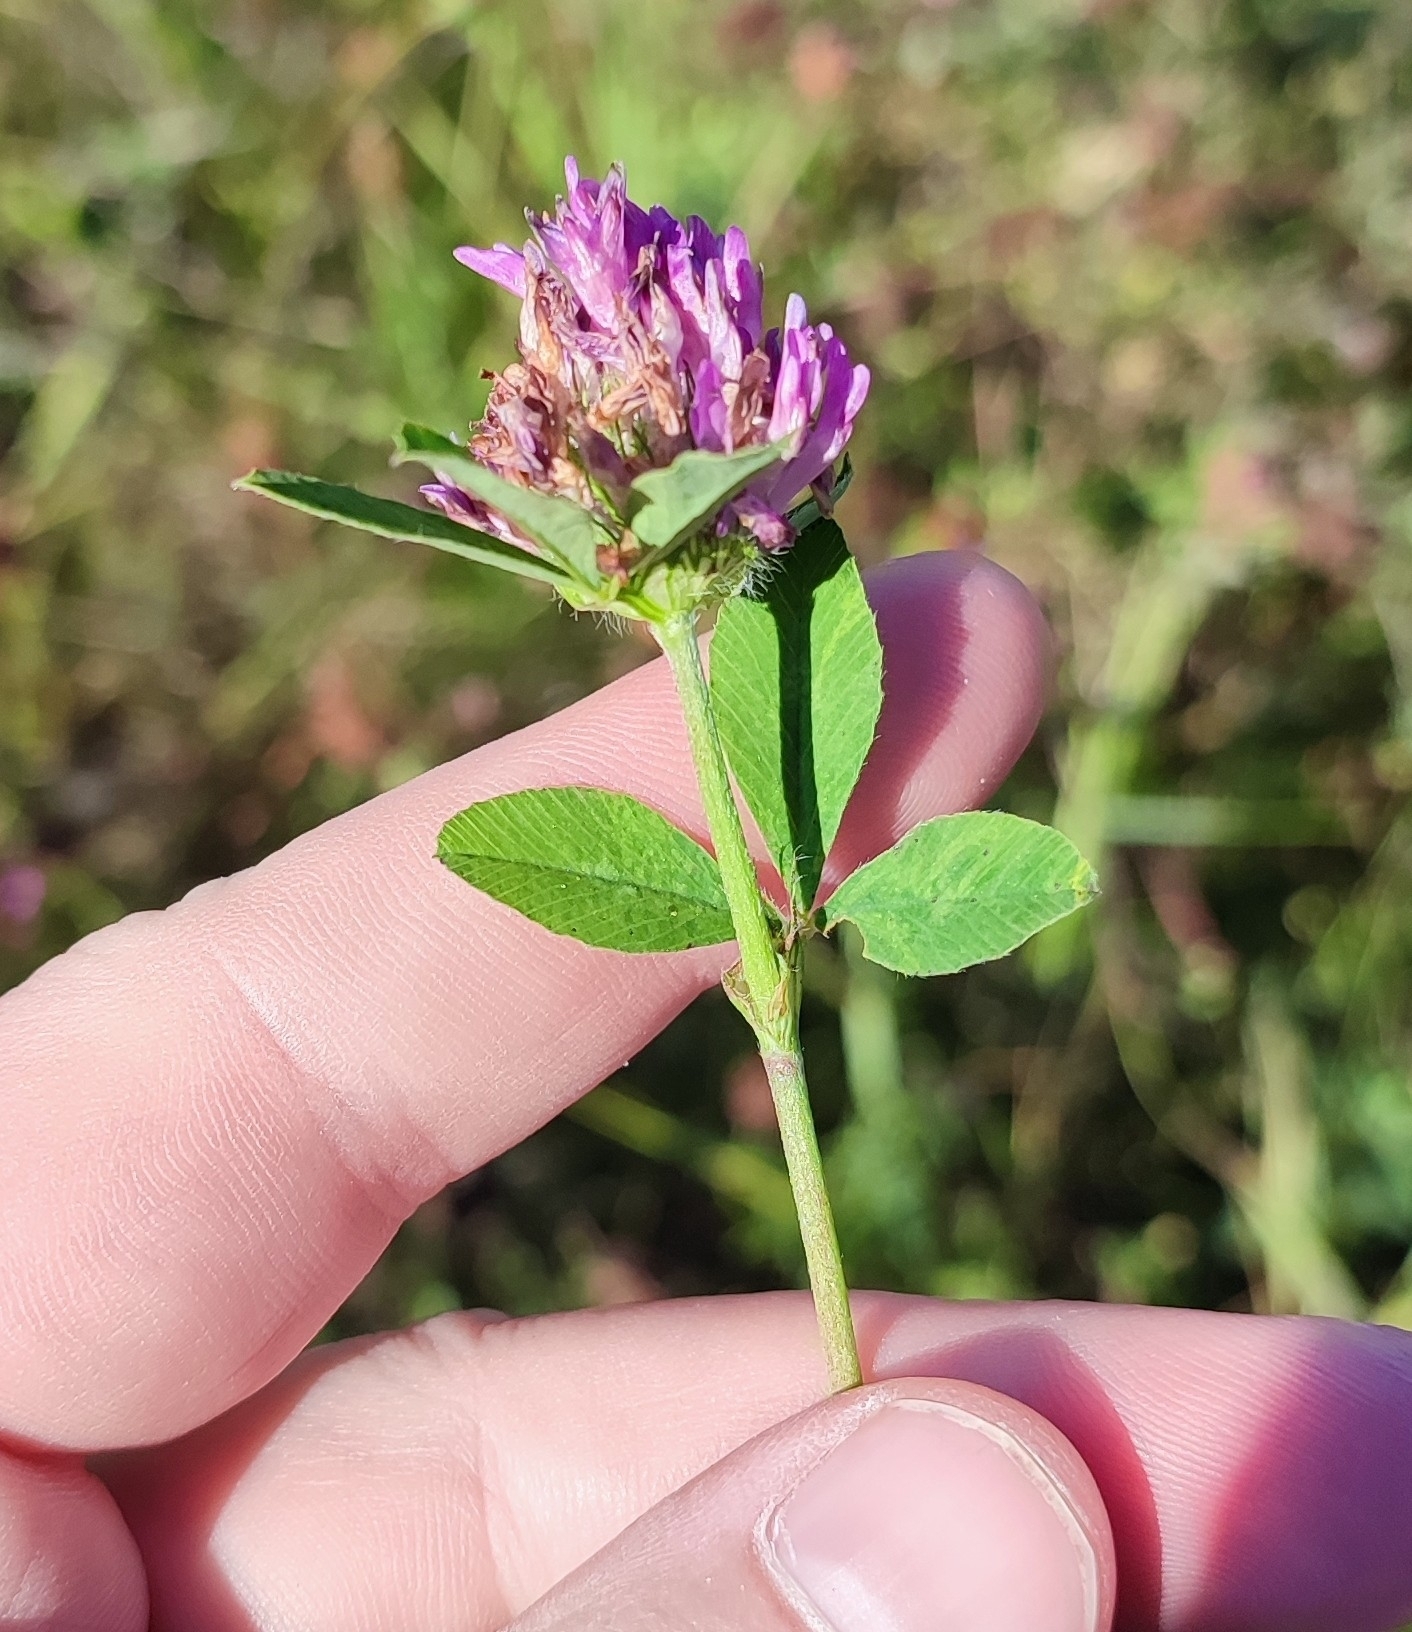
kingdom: Plantae
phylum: Tracheophyta
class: Magnoliopsida
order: Fabales
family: Fabaceae
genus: Trifolium
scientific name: Trifolium pratense
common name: Red clover
